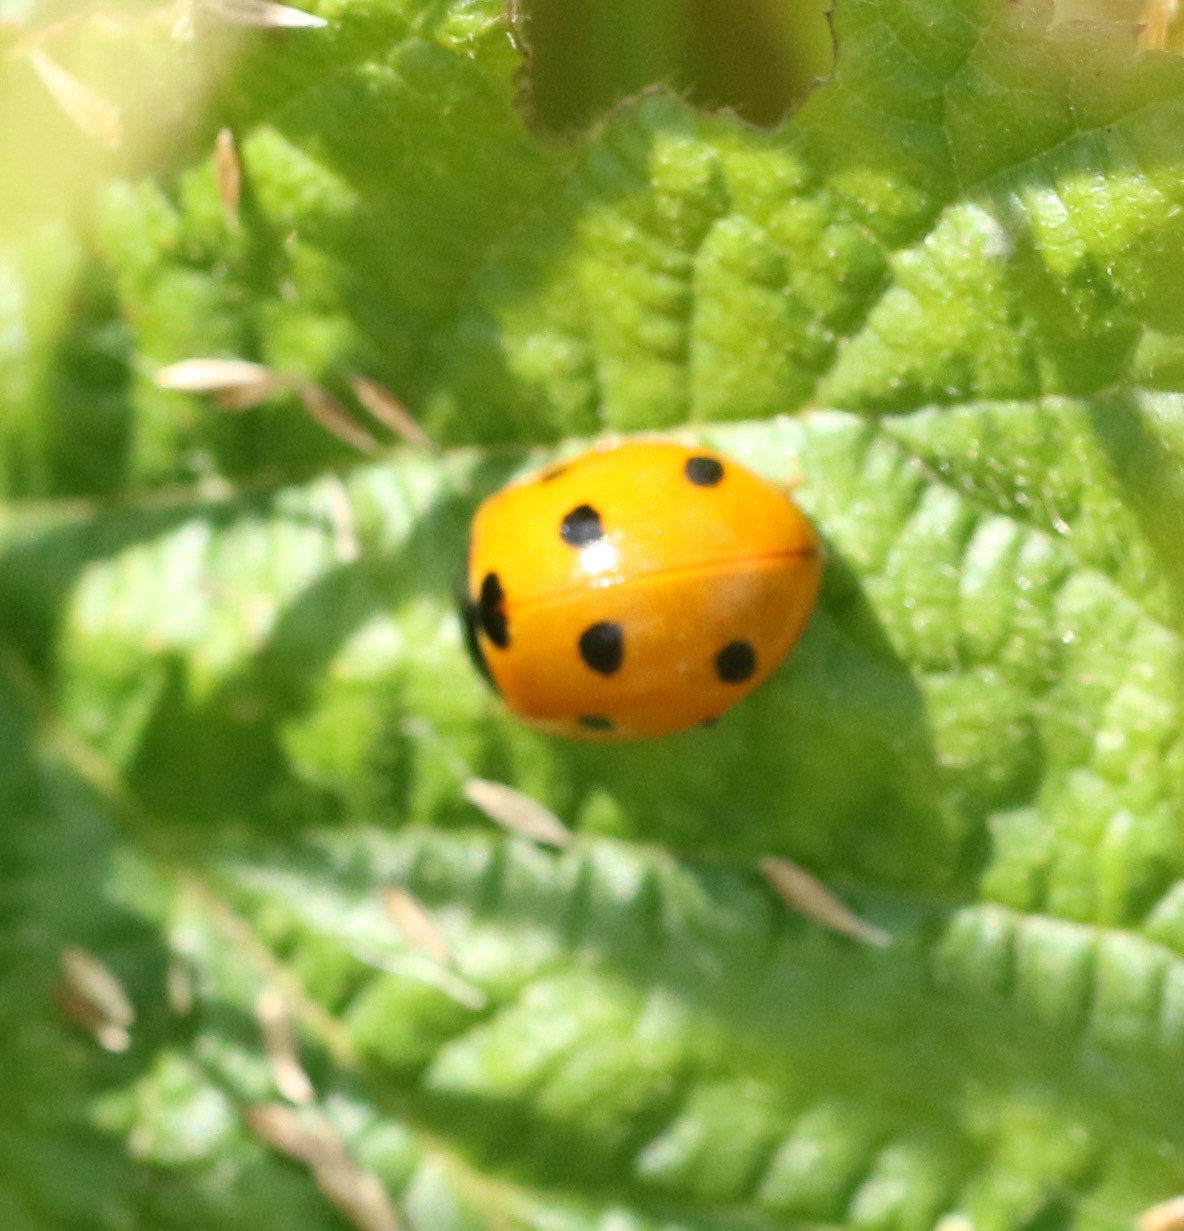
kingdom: Animalia
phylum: Arthropoda
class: Insecta
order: Coleoptera
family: Coccinellidae
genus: Coccinella
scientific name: Coccinella septempunctata
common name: Sevenspotted lady beetle
